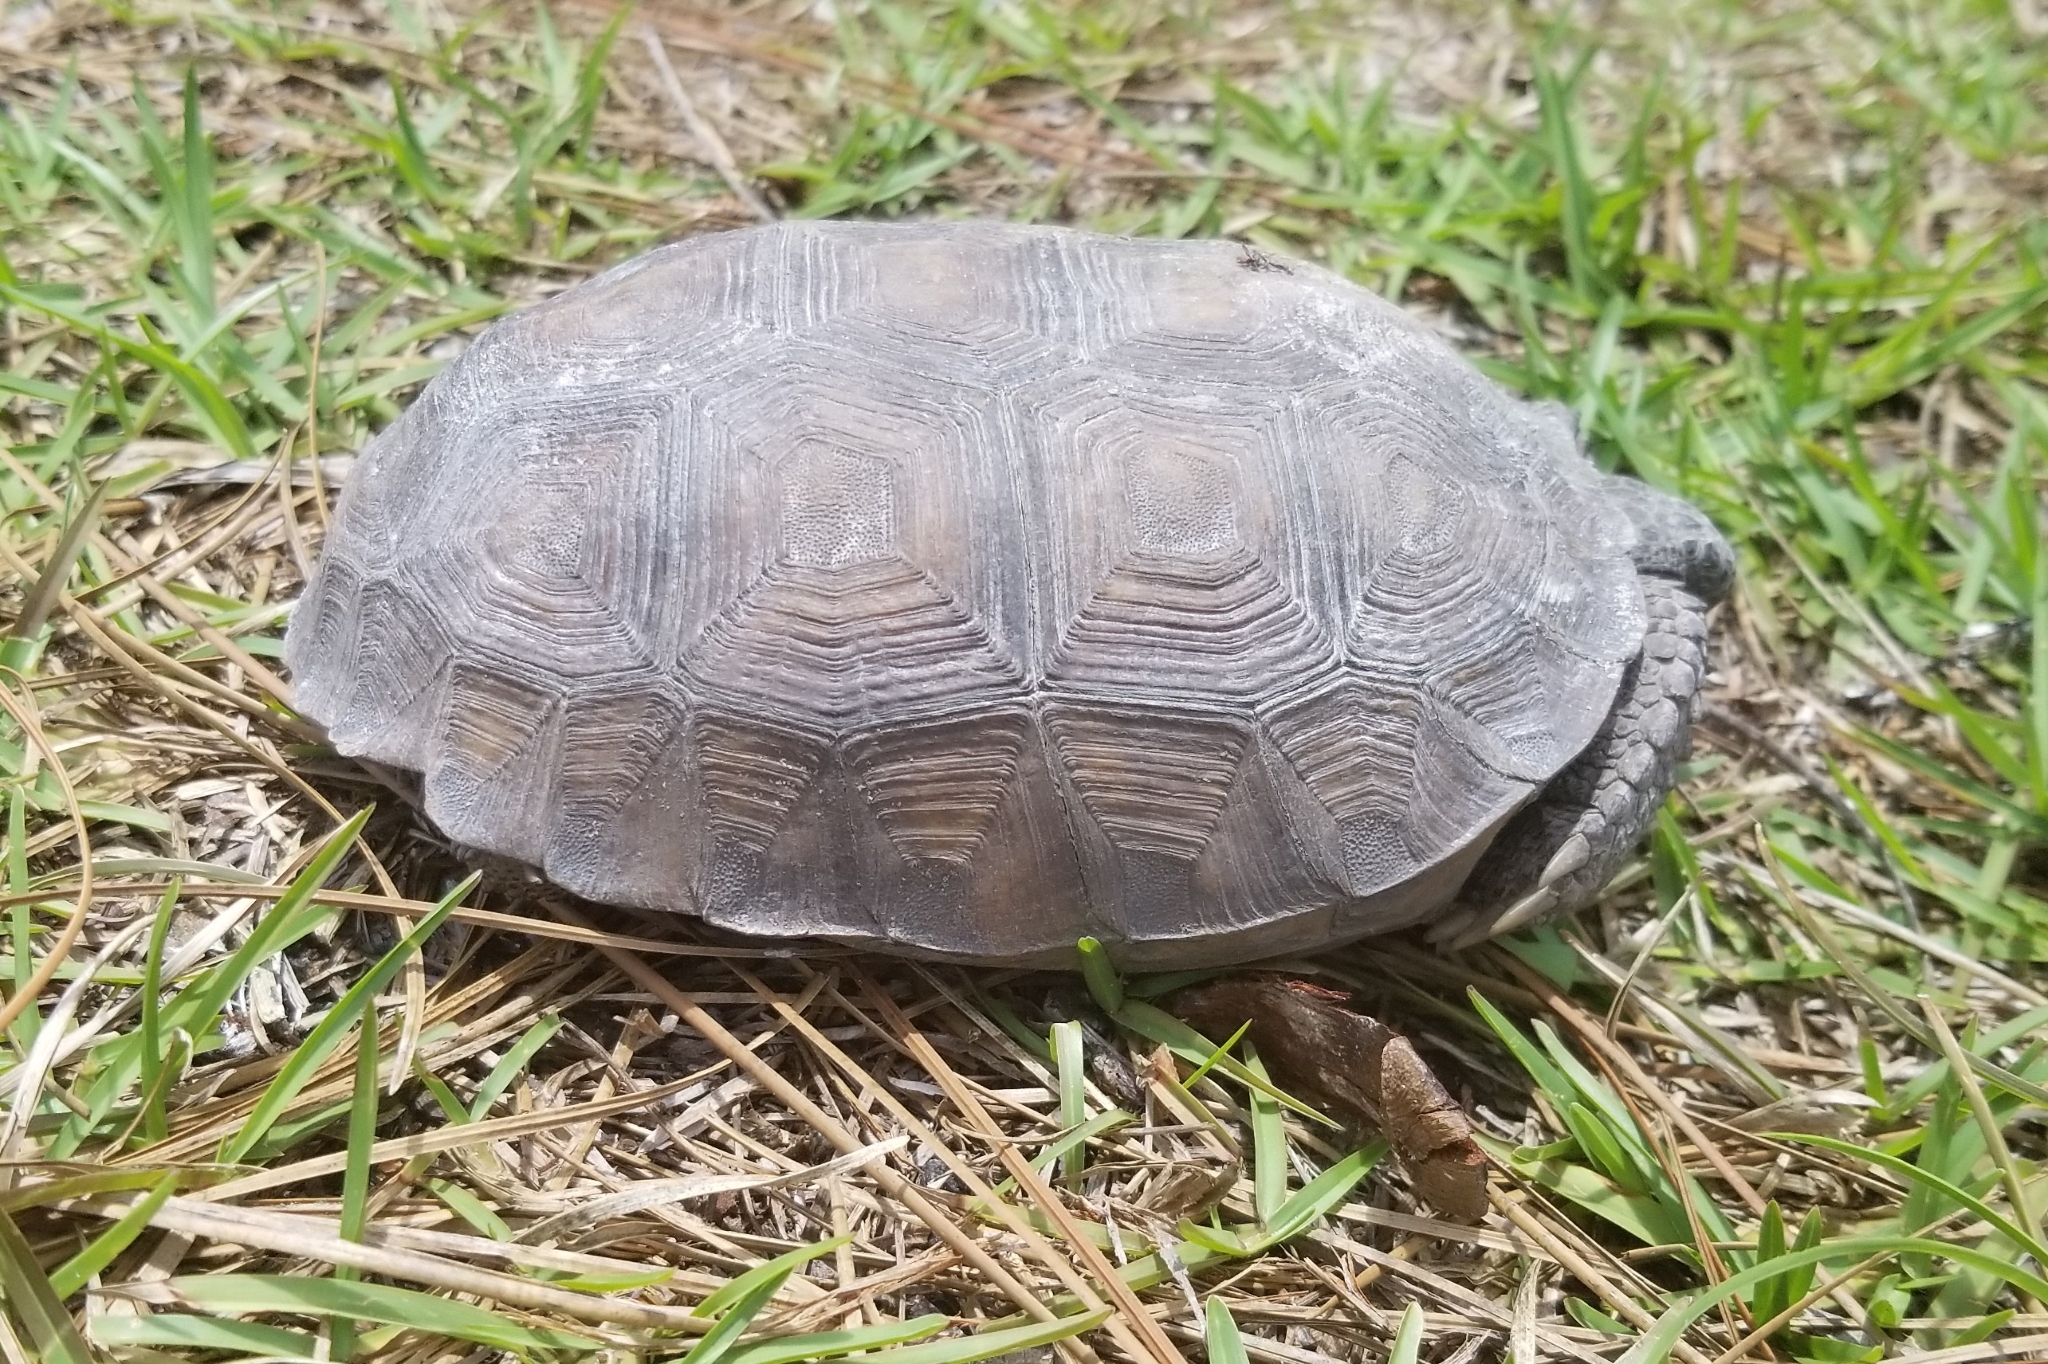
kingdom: Animalia
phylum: Chordata
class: Testudines
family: Testudinidae
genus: Gopherus
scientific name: Gopherus polyphemus
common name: Florida gopher tortoise
